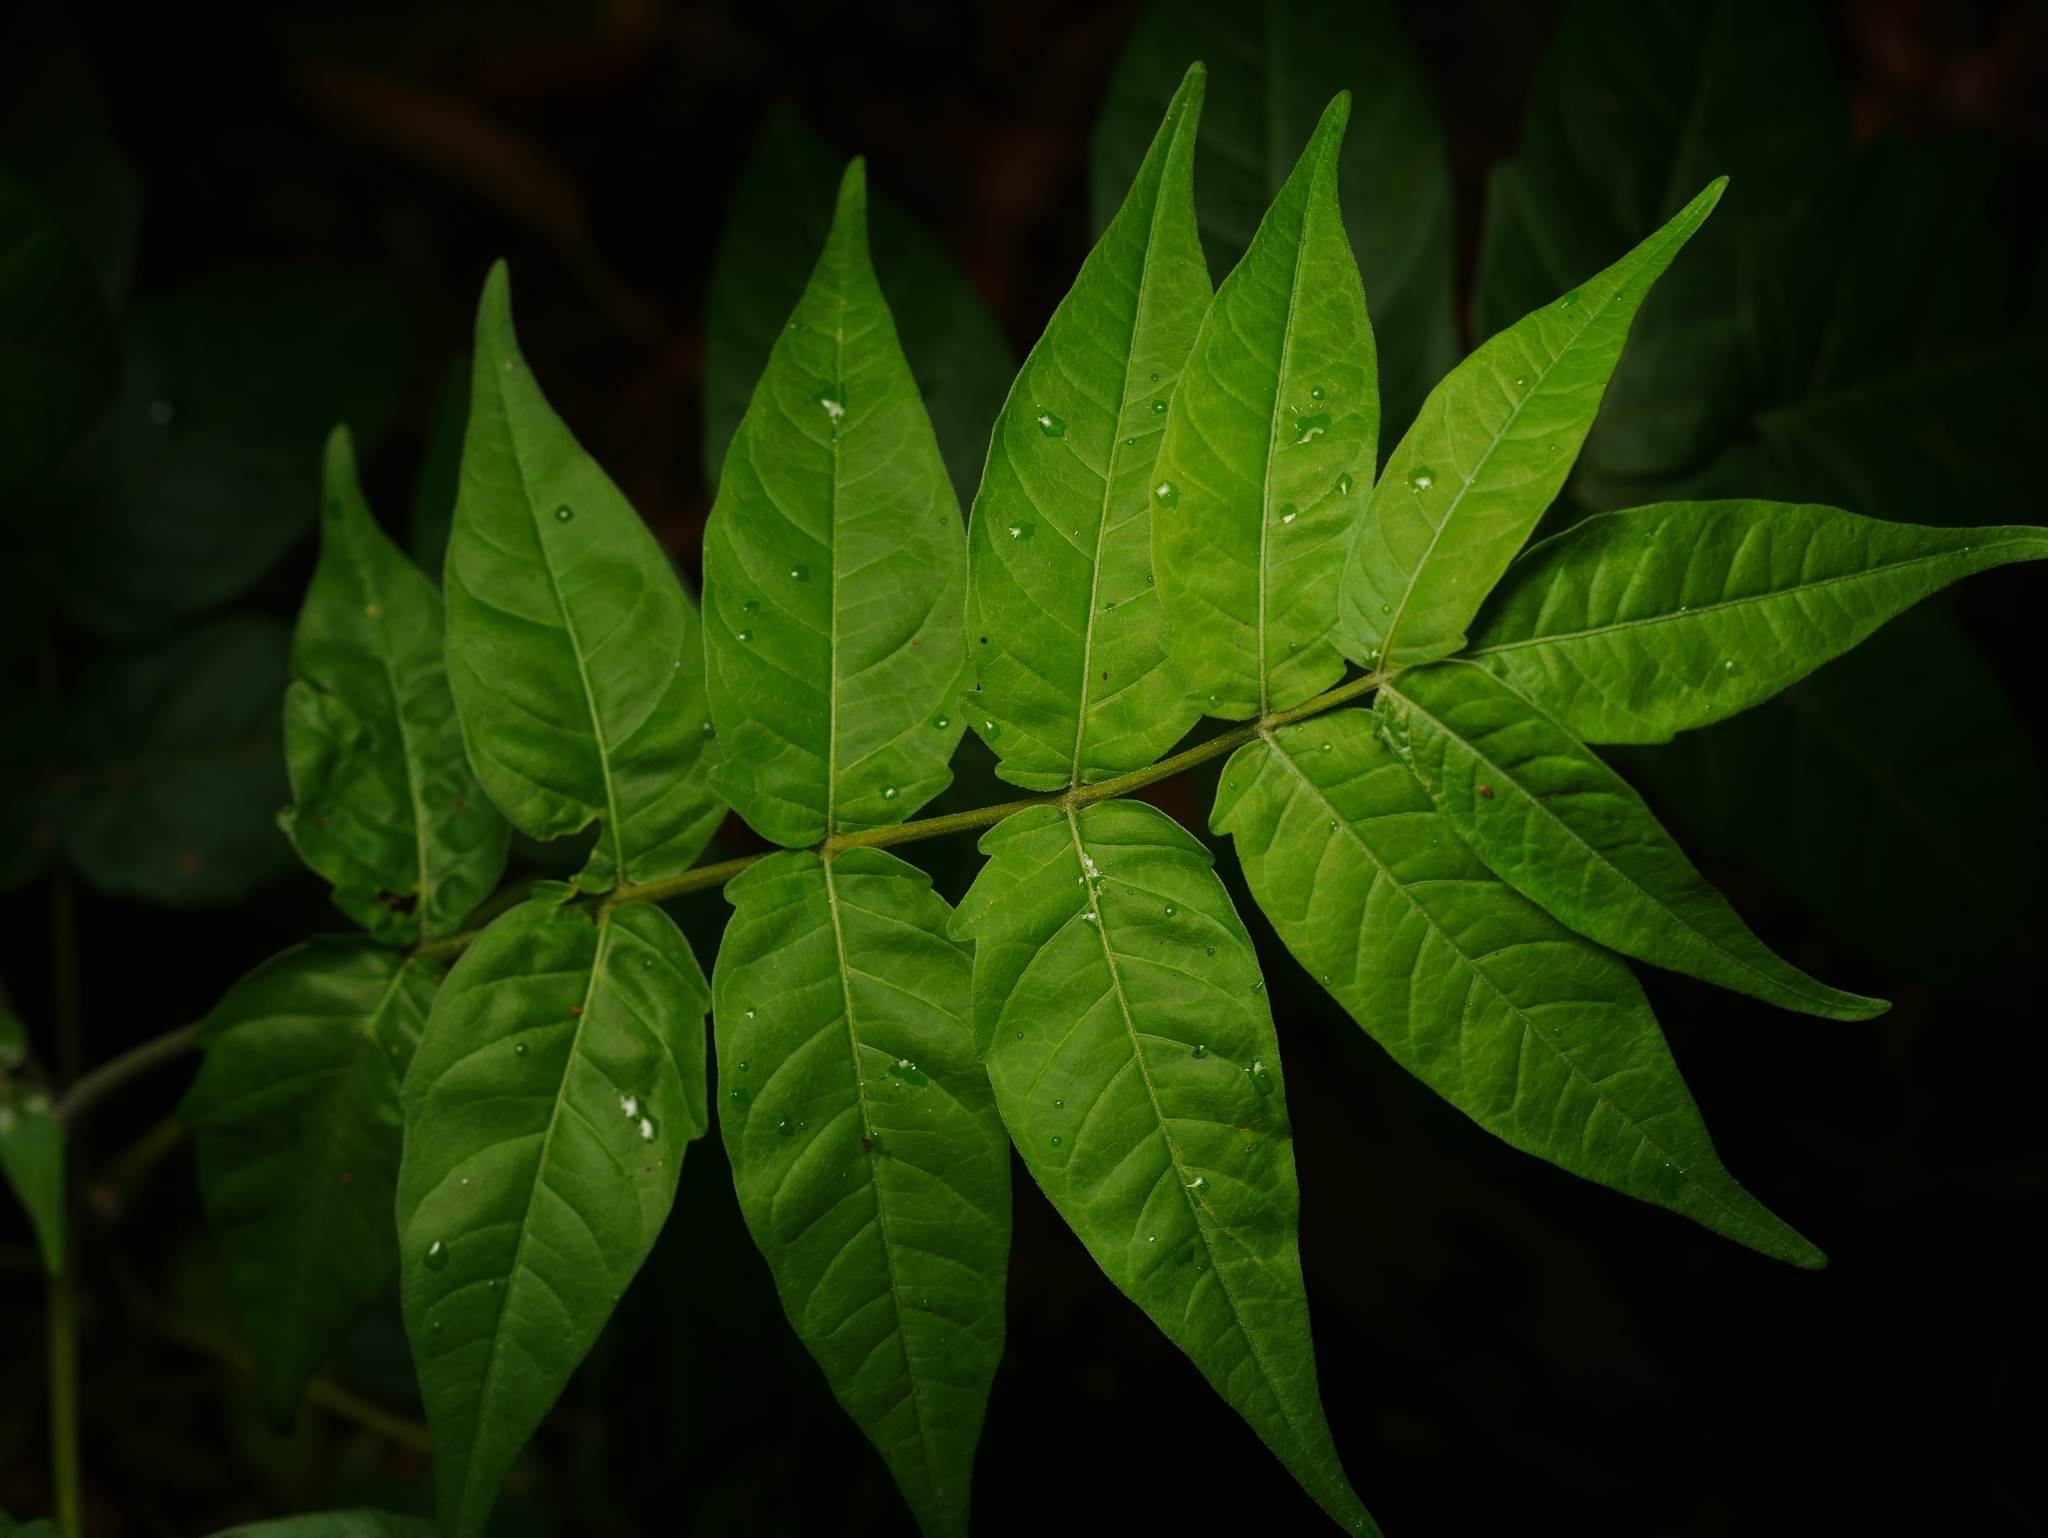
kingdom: Plantae
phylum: Tracheophyta
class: Magnoliopsida
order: Sapindales
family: Simaroubaceae
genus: Ailanthus
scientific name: Ailanthus altissima
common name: Tree-of-heaven
